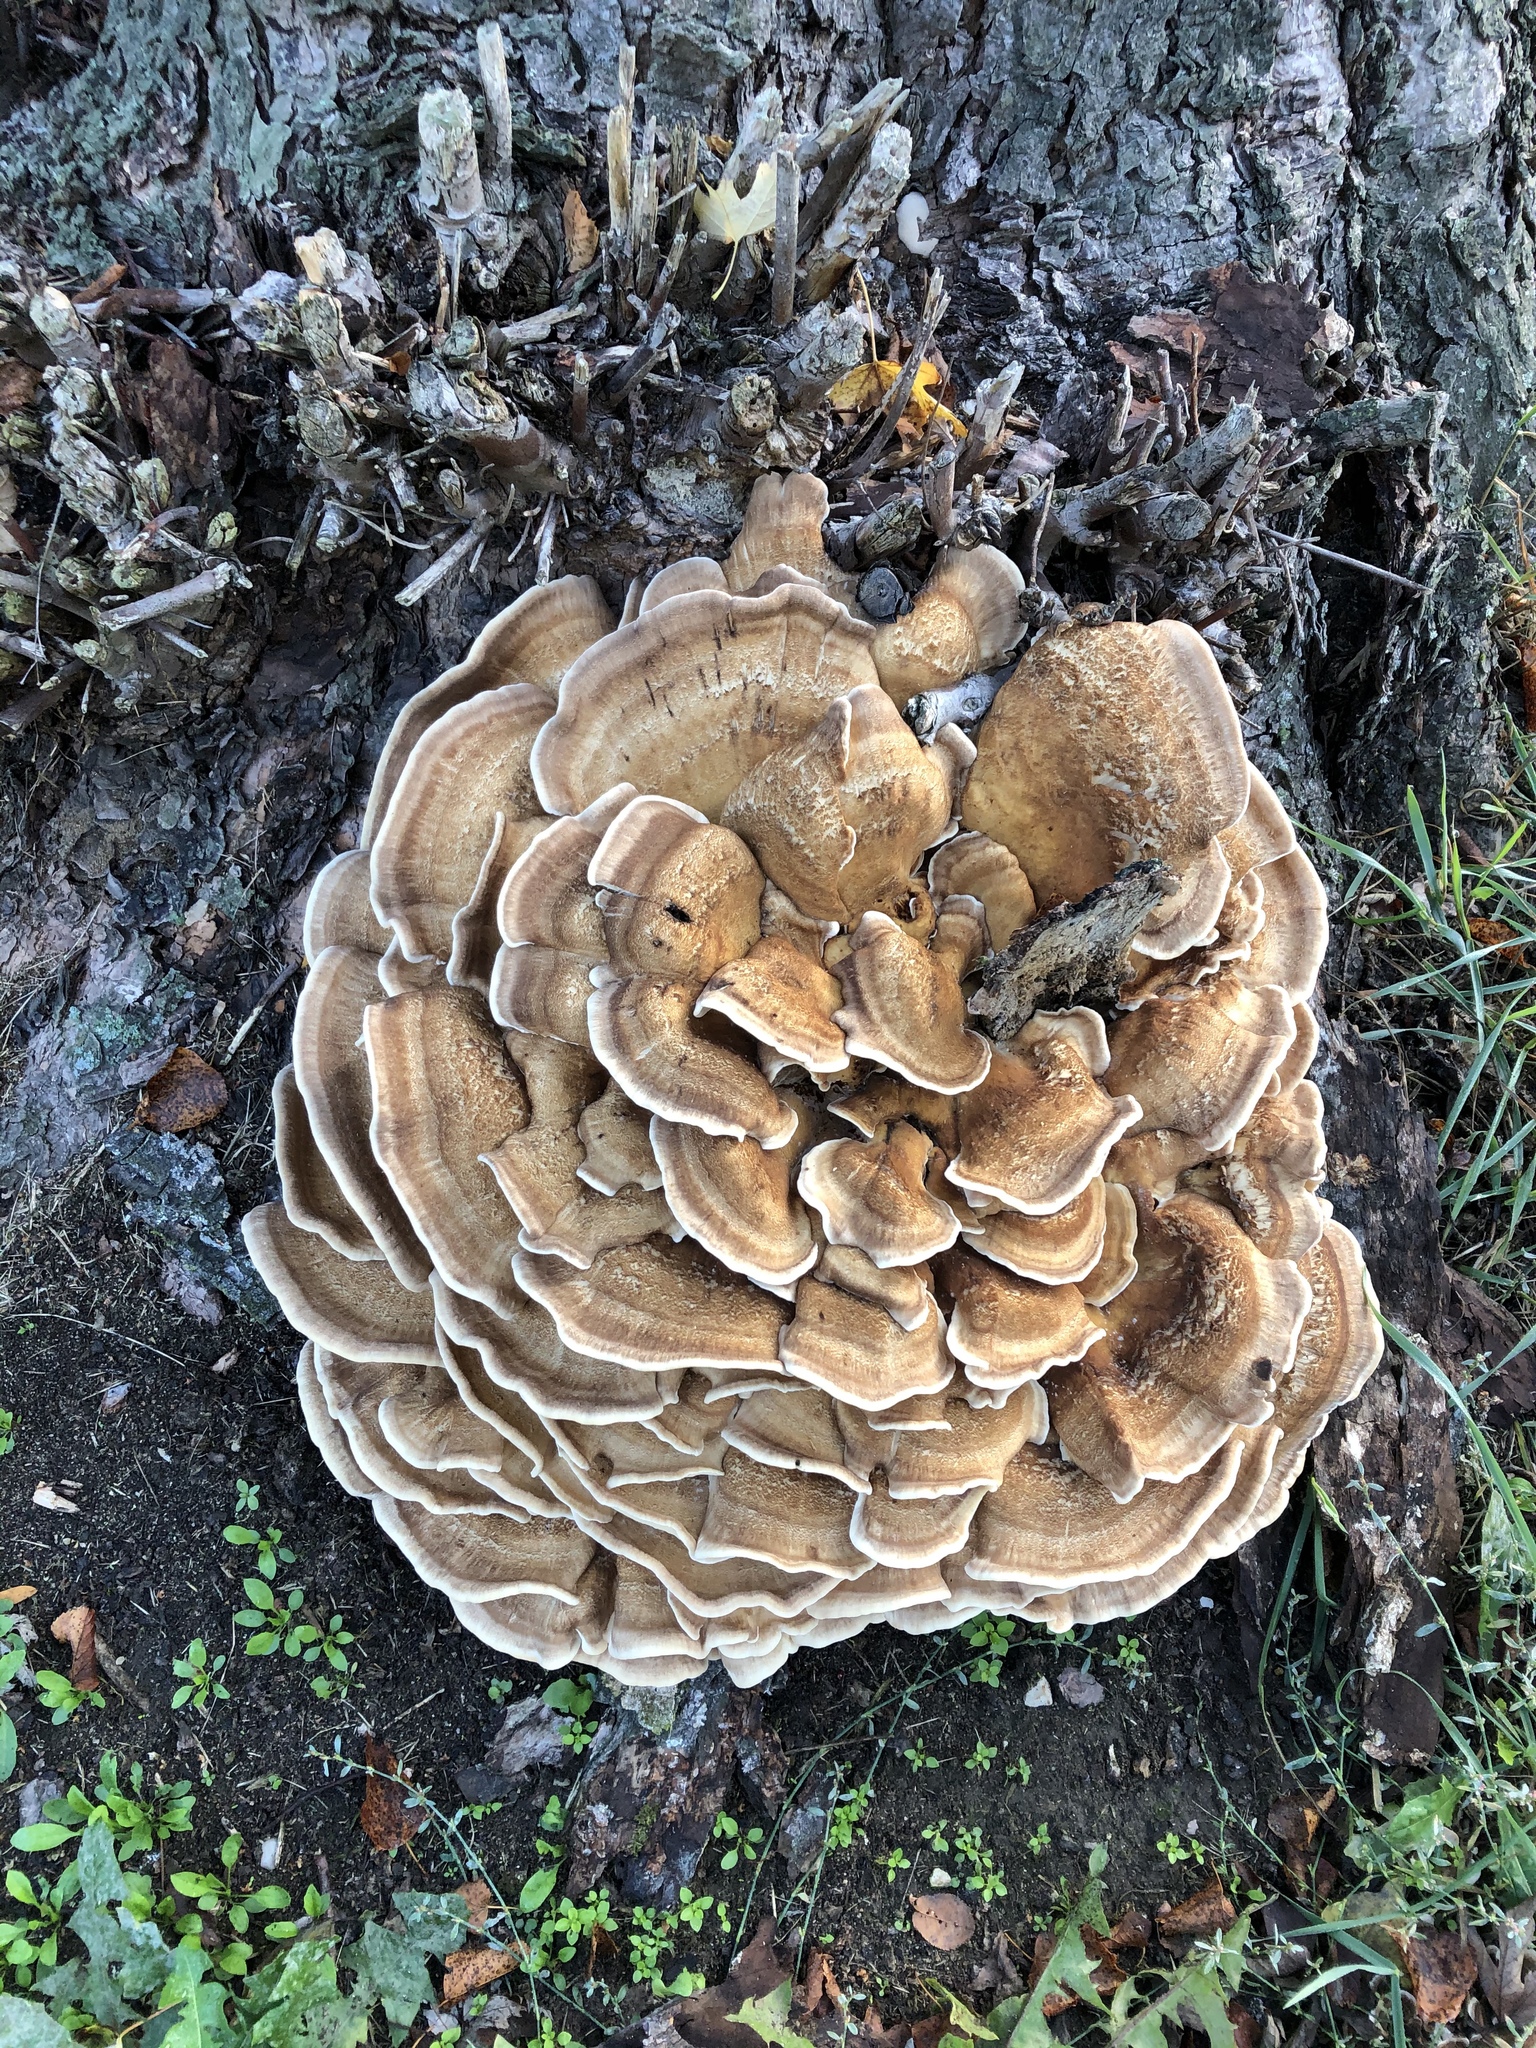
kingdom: Fungi
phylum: Basidiomycota
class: Agaricomycetes
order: Polyporales
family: Meripilaceae
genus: Meripilus
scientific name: Meripilus giganteus
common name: Giant polypore
